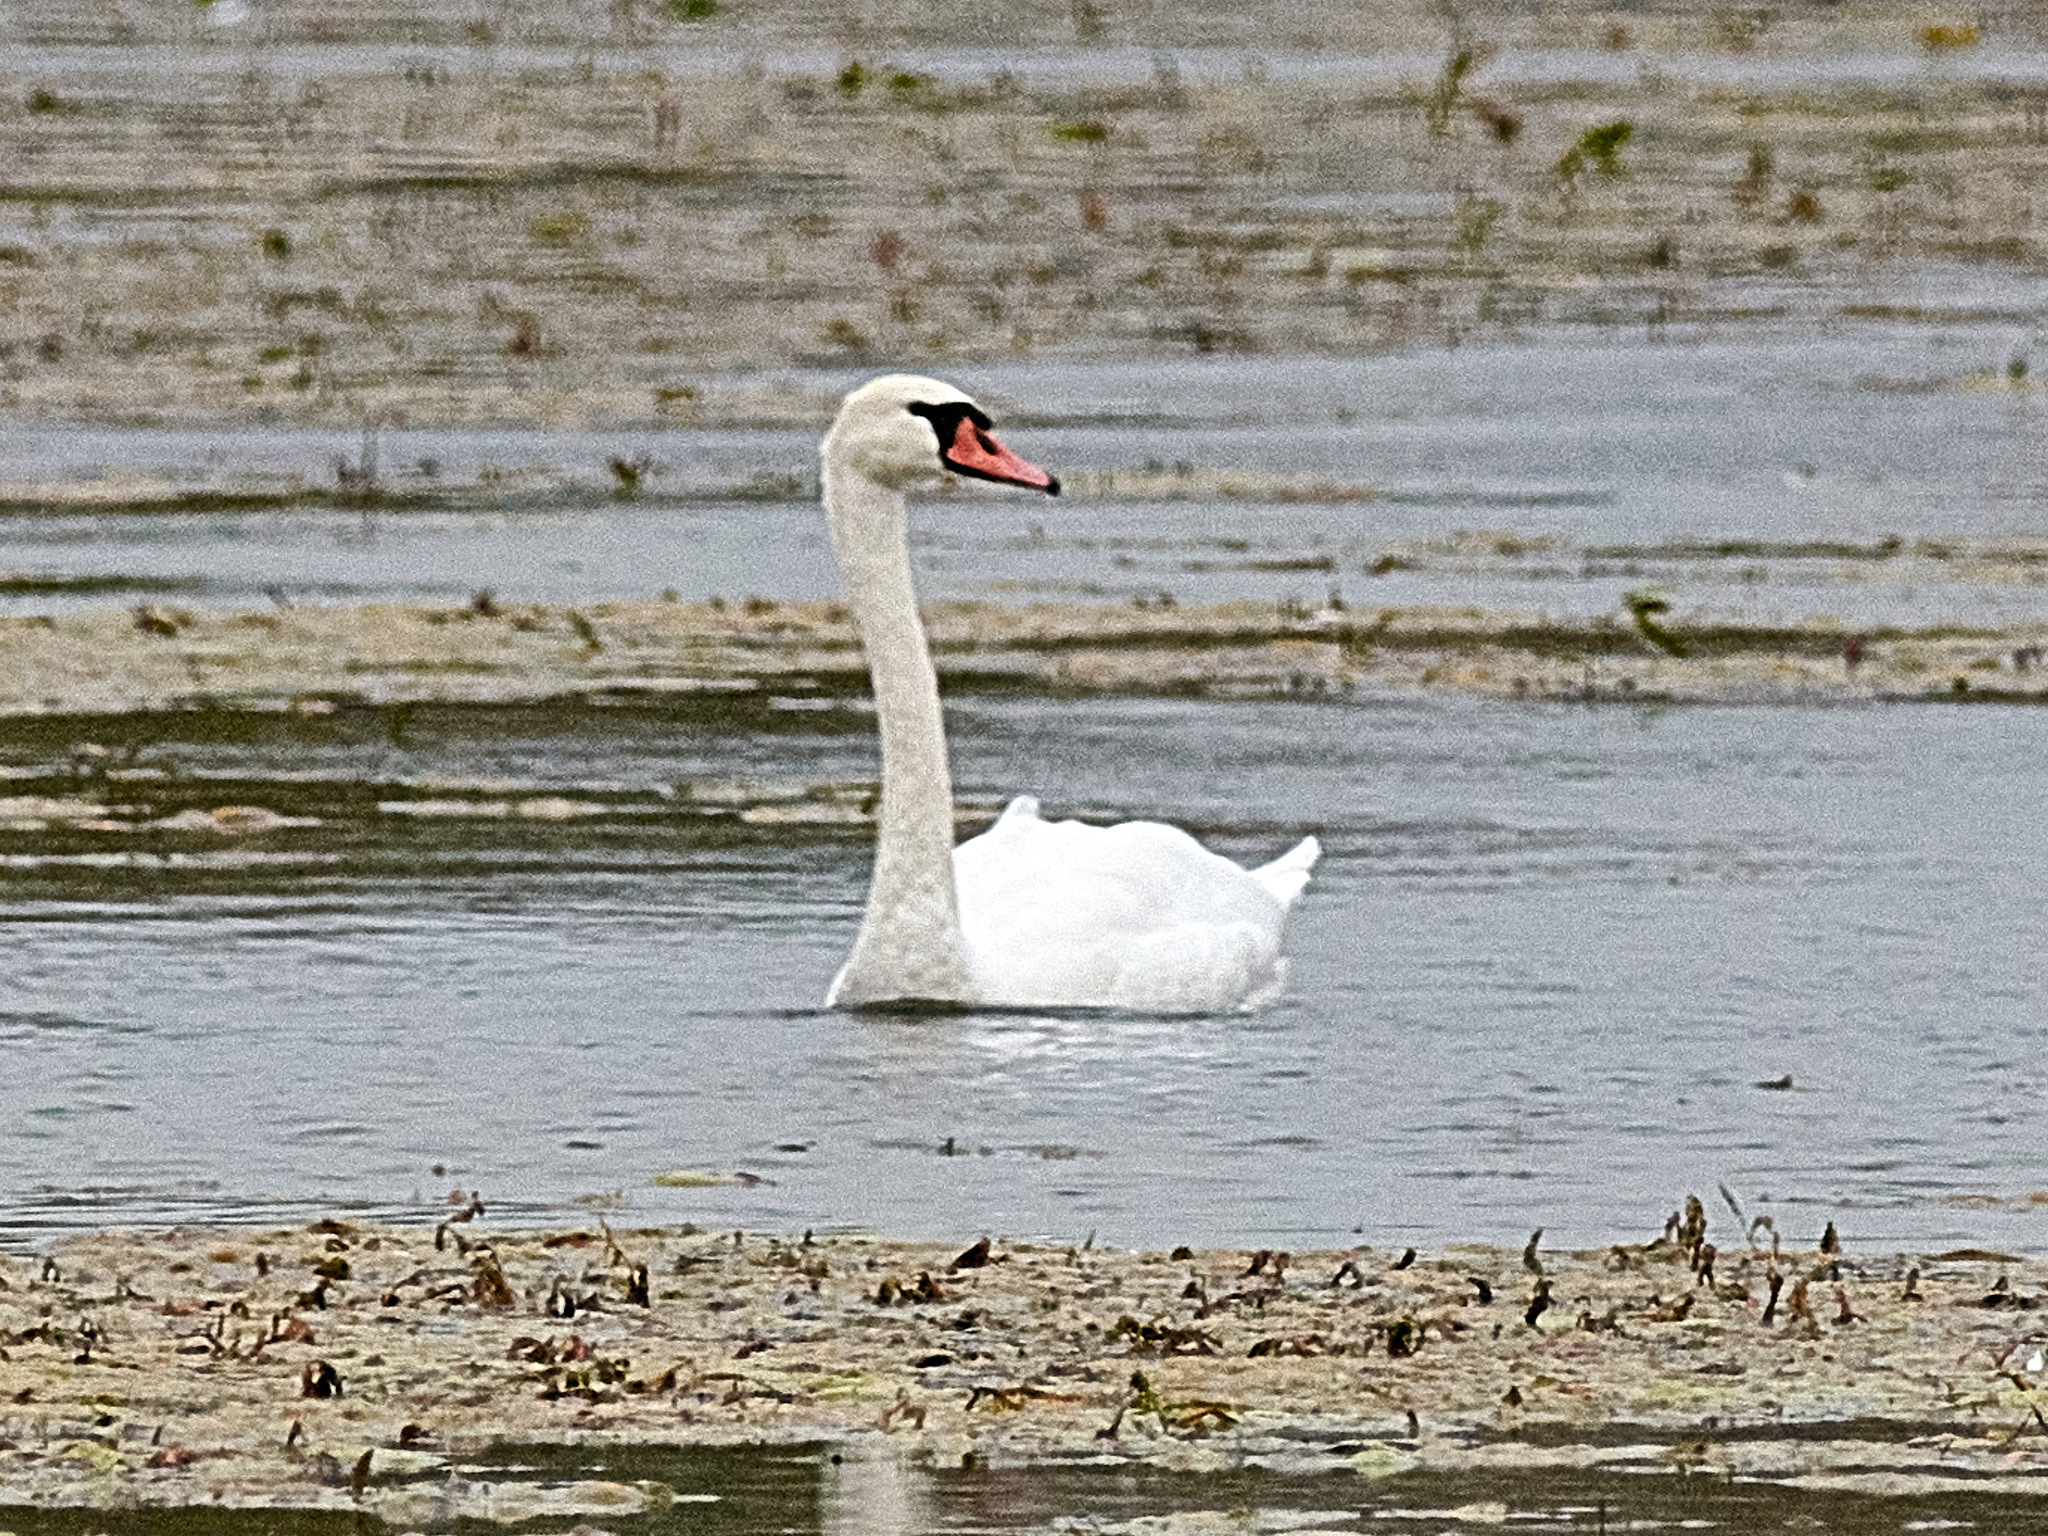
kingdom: Animalia
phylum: Chordata
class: Aves
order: Anseriformes
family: Anatidae
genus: Cygnus
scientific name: Cygnus olor
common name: Mute swan
